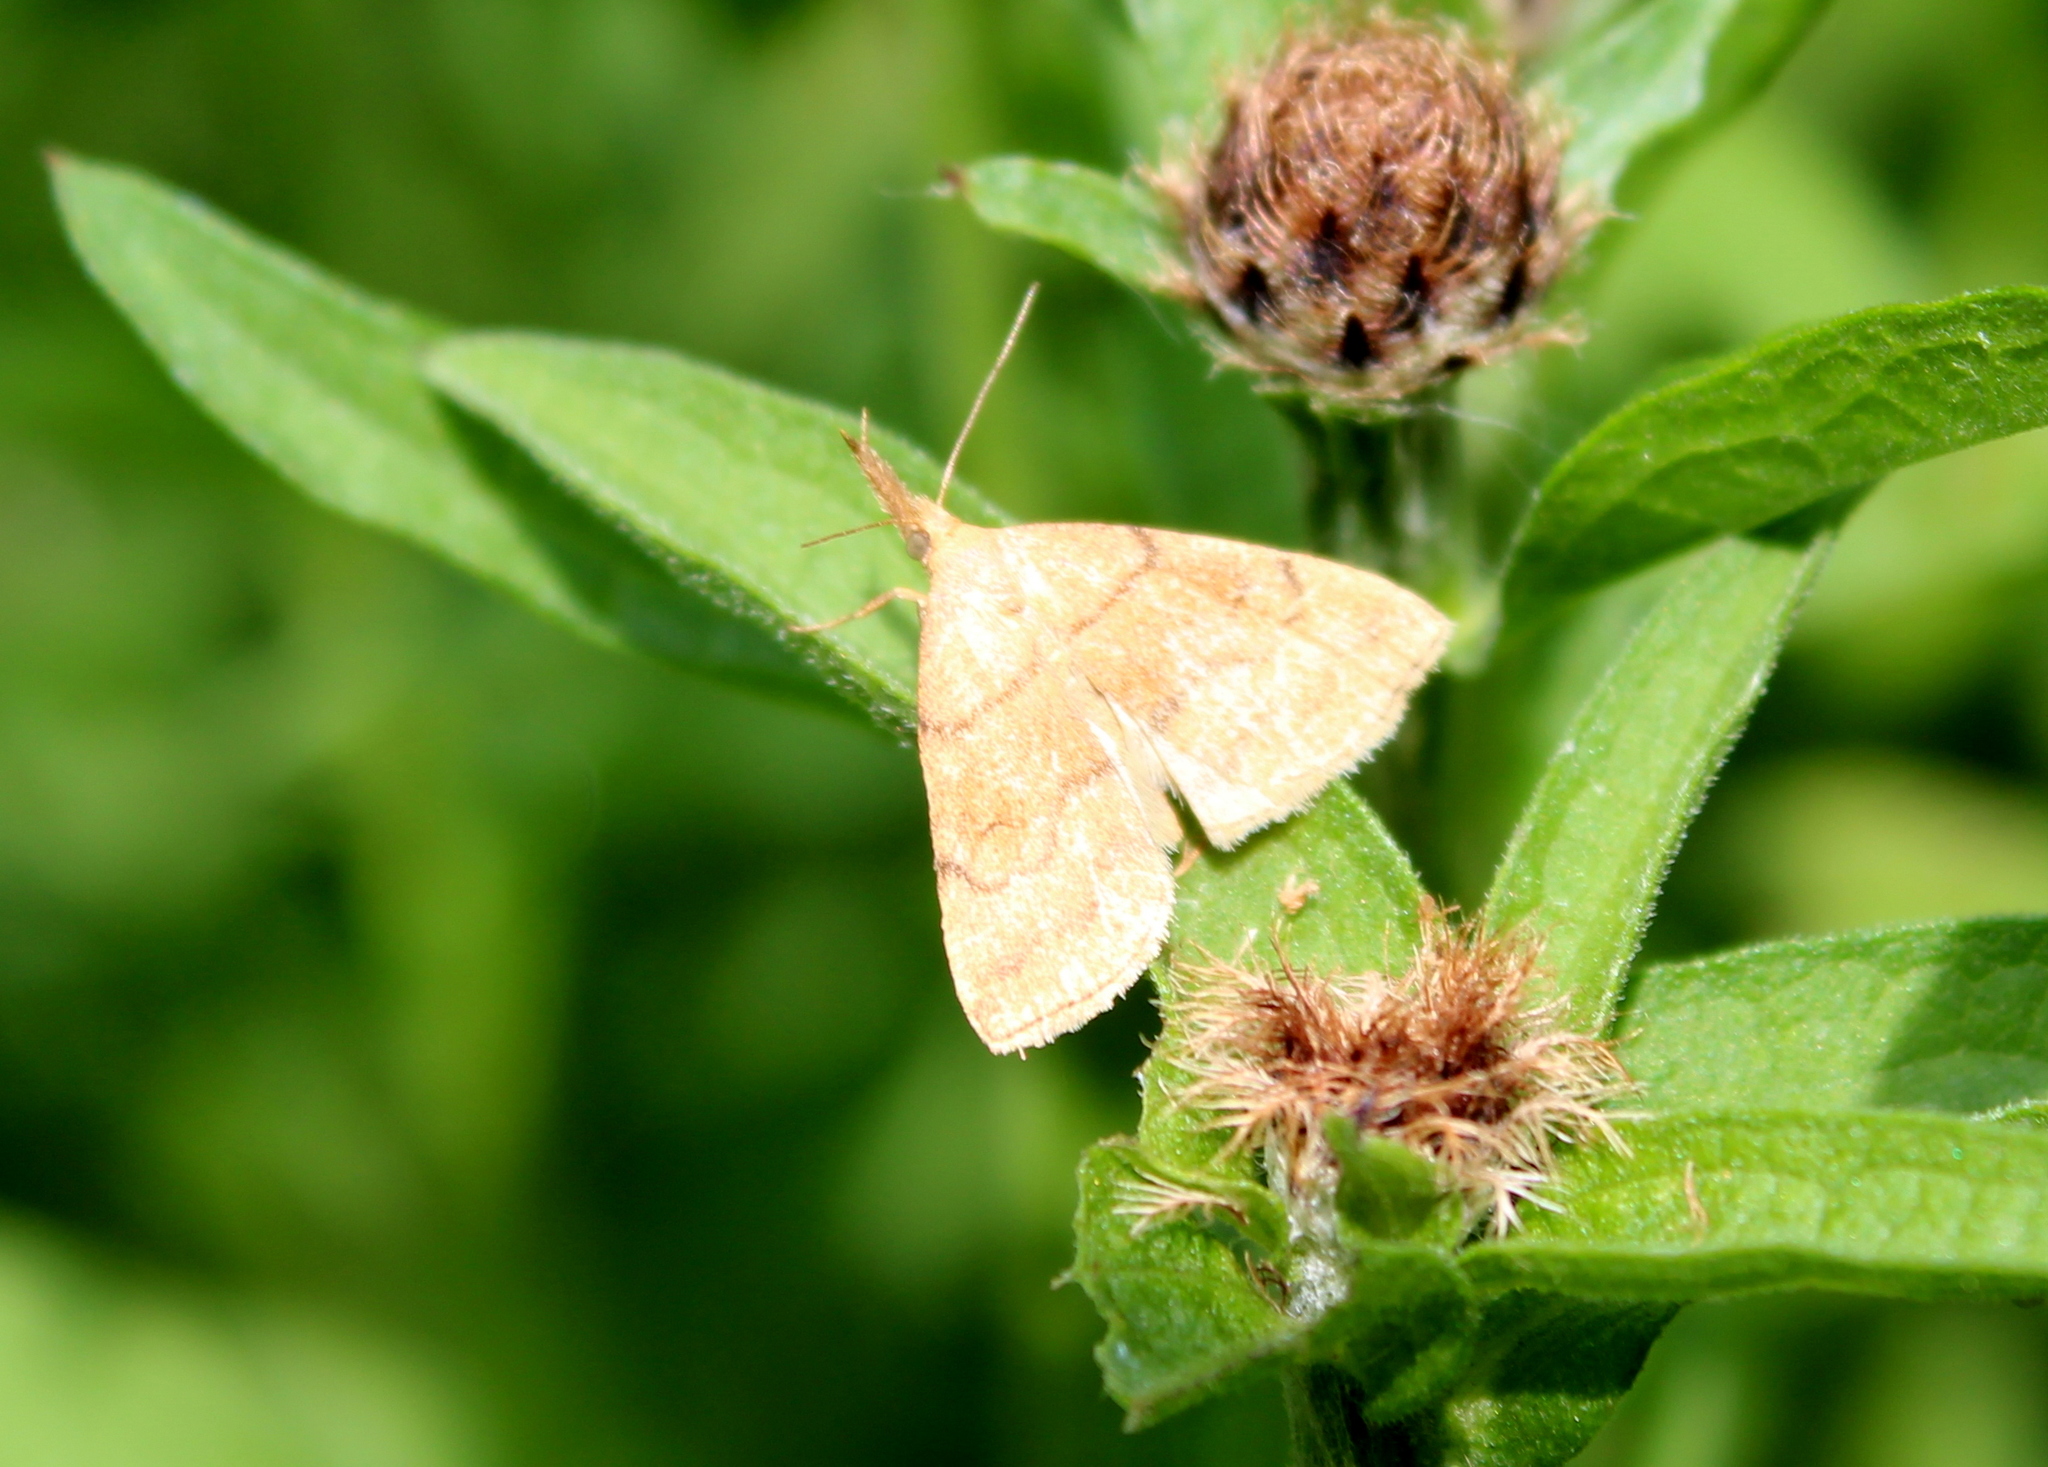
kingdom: Animalia
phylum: Arthropoda
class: Insecta
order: Lepidoptera
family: Erebidae
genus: Phalaenostola
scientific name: Phalaenostola metonalis
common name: Pale phalaenostola moth
